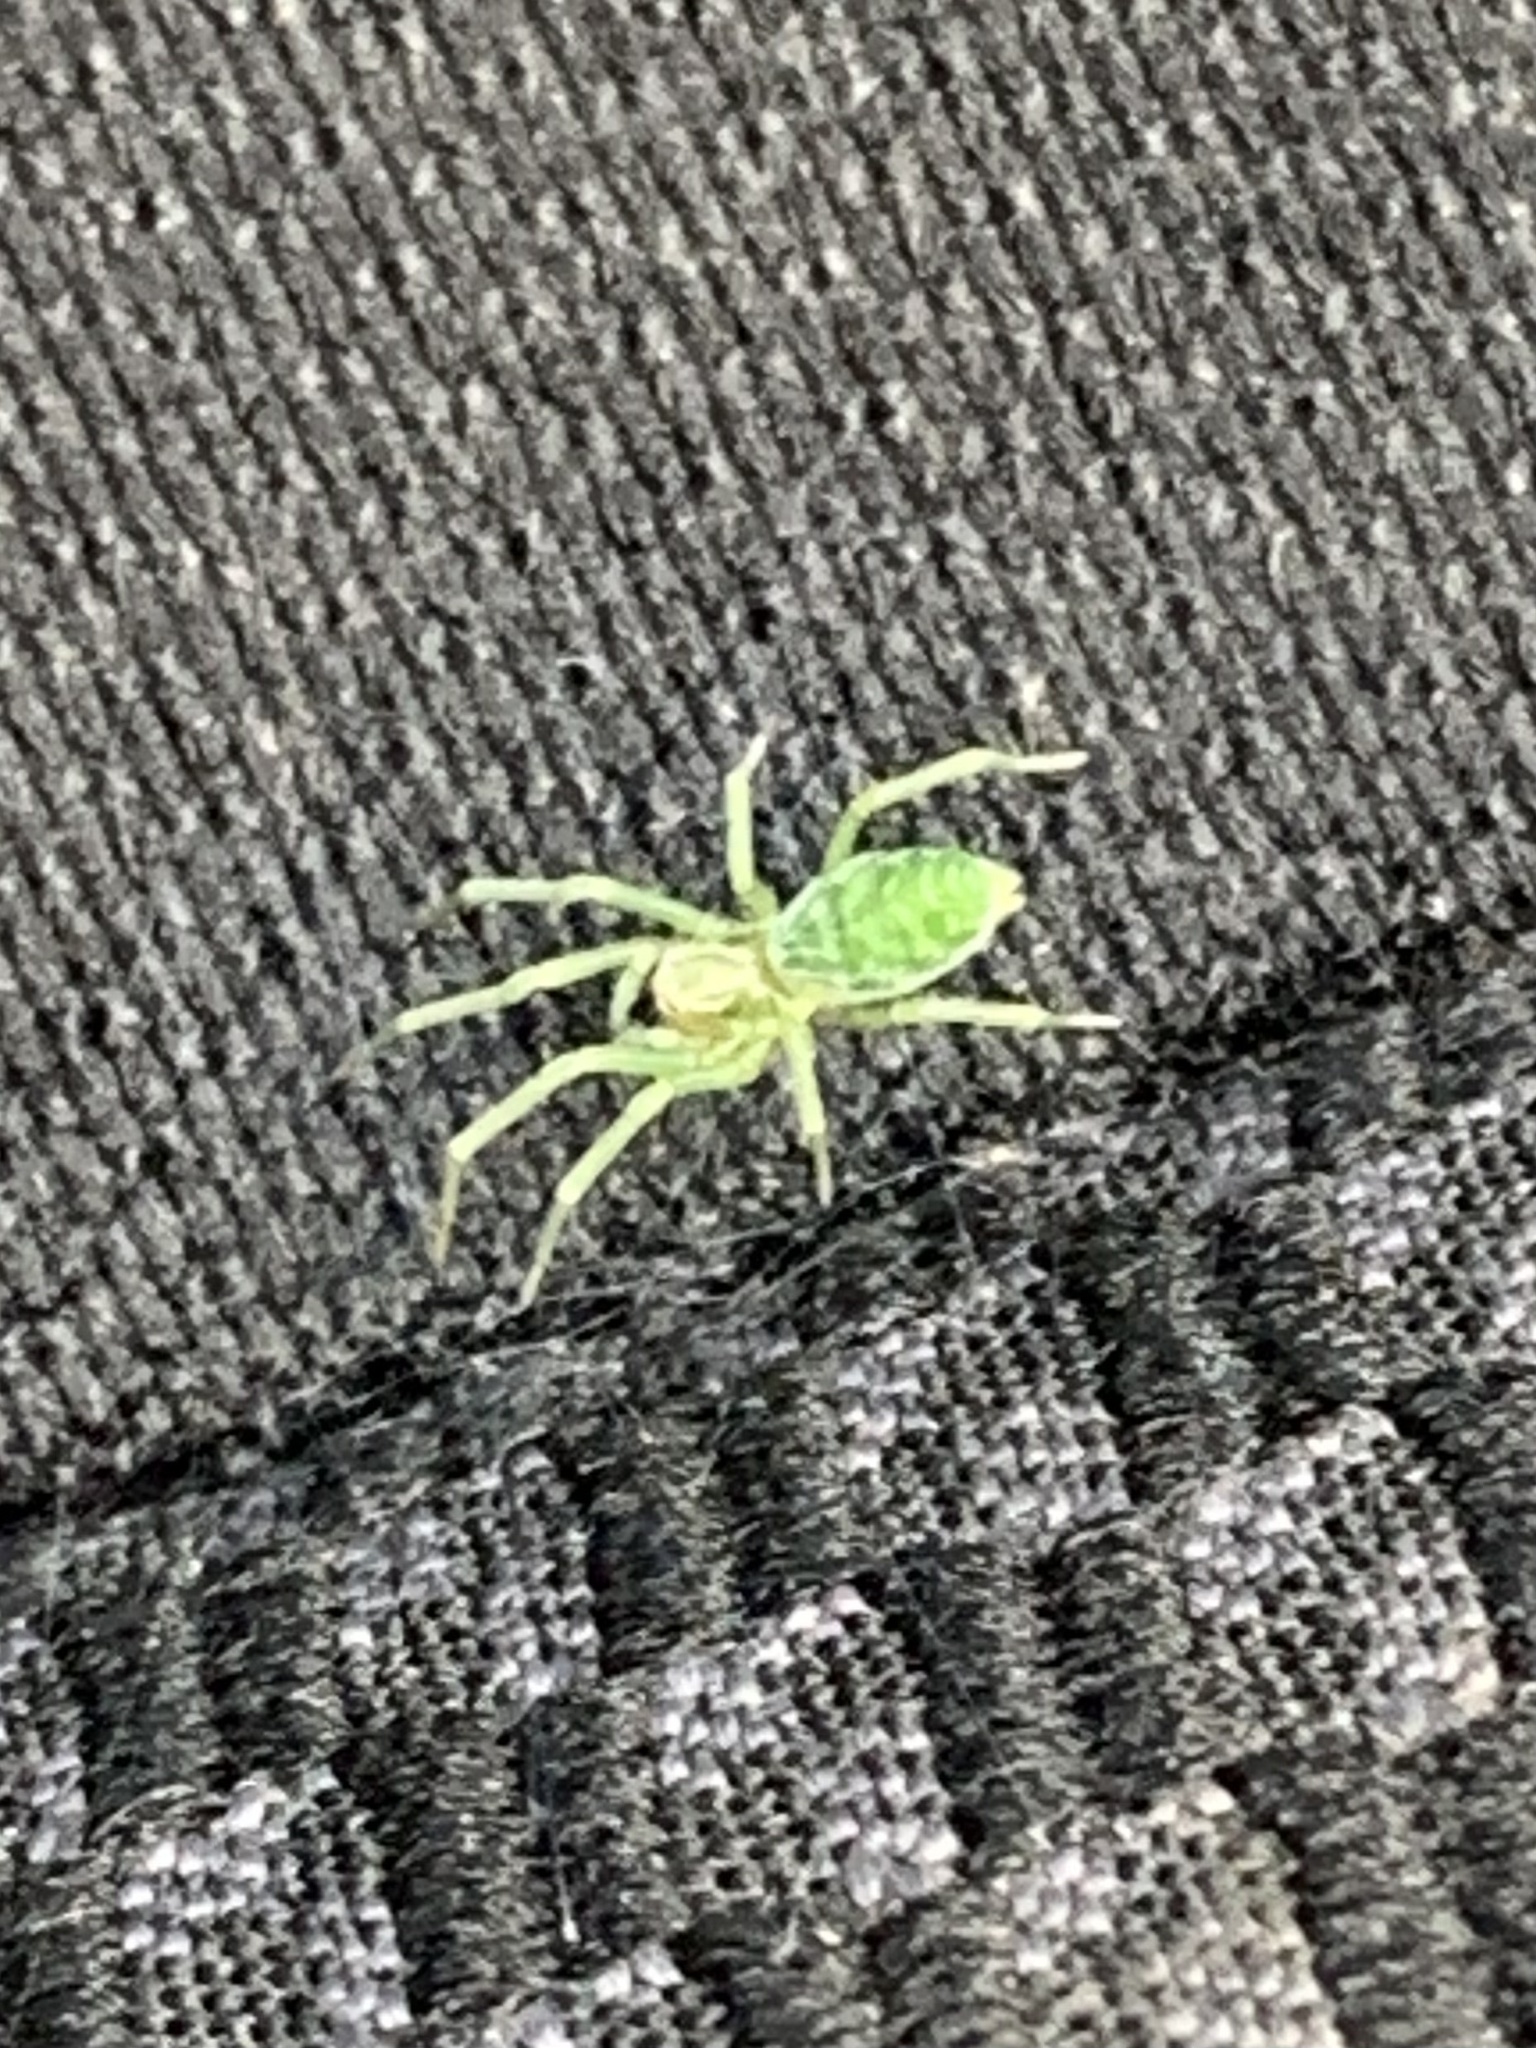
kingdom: Animalia
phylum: Arthropoda
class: Arachnida
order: Araneae
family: Dictynidae
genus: Nigma
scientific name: Nigma walckenaeri
